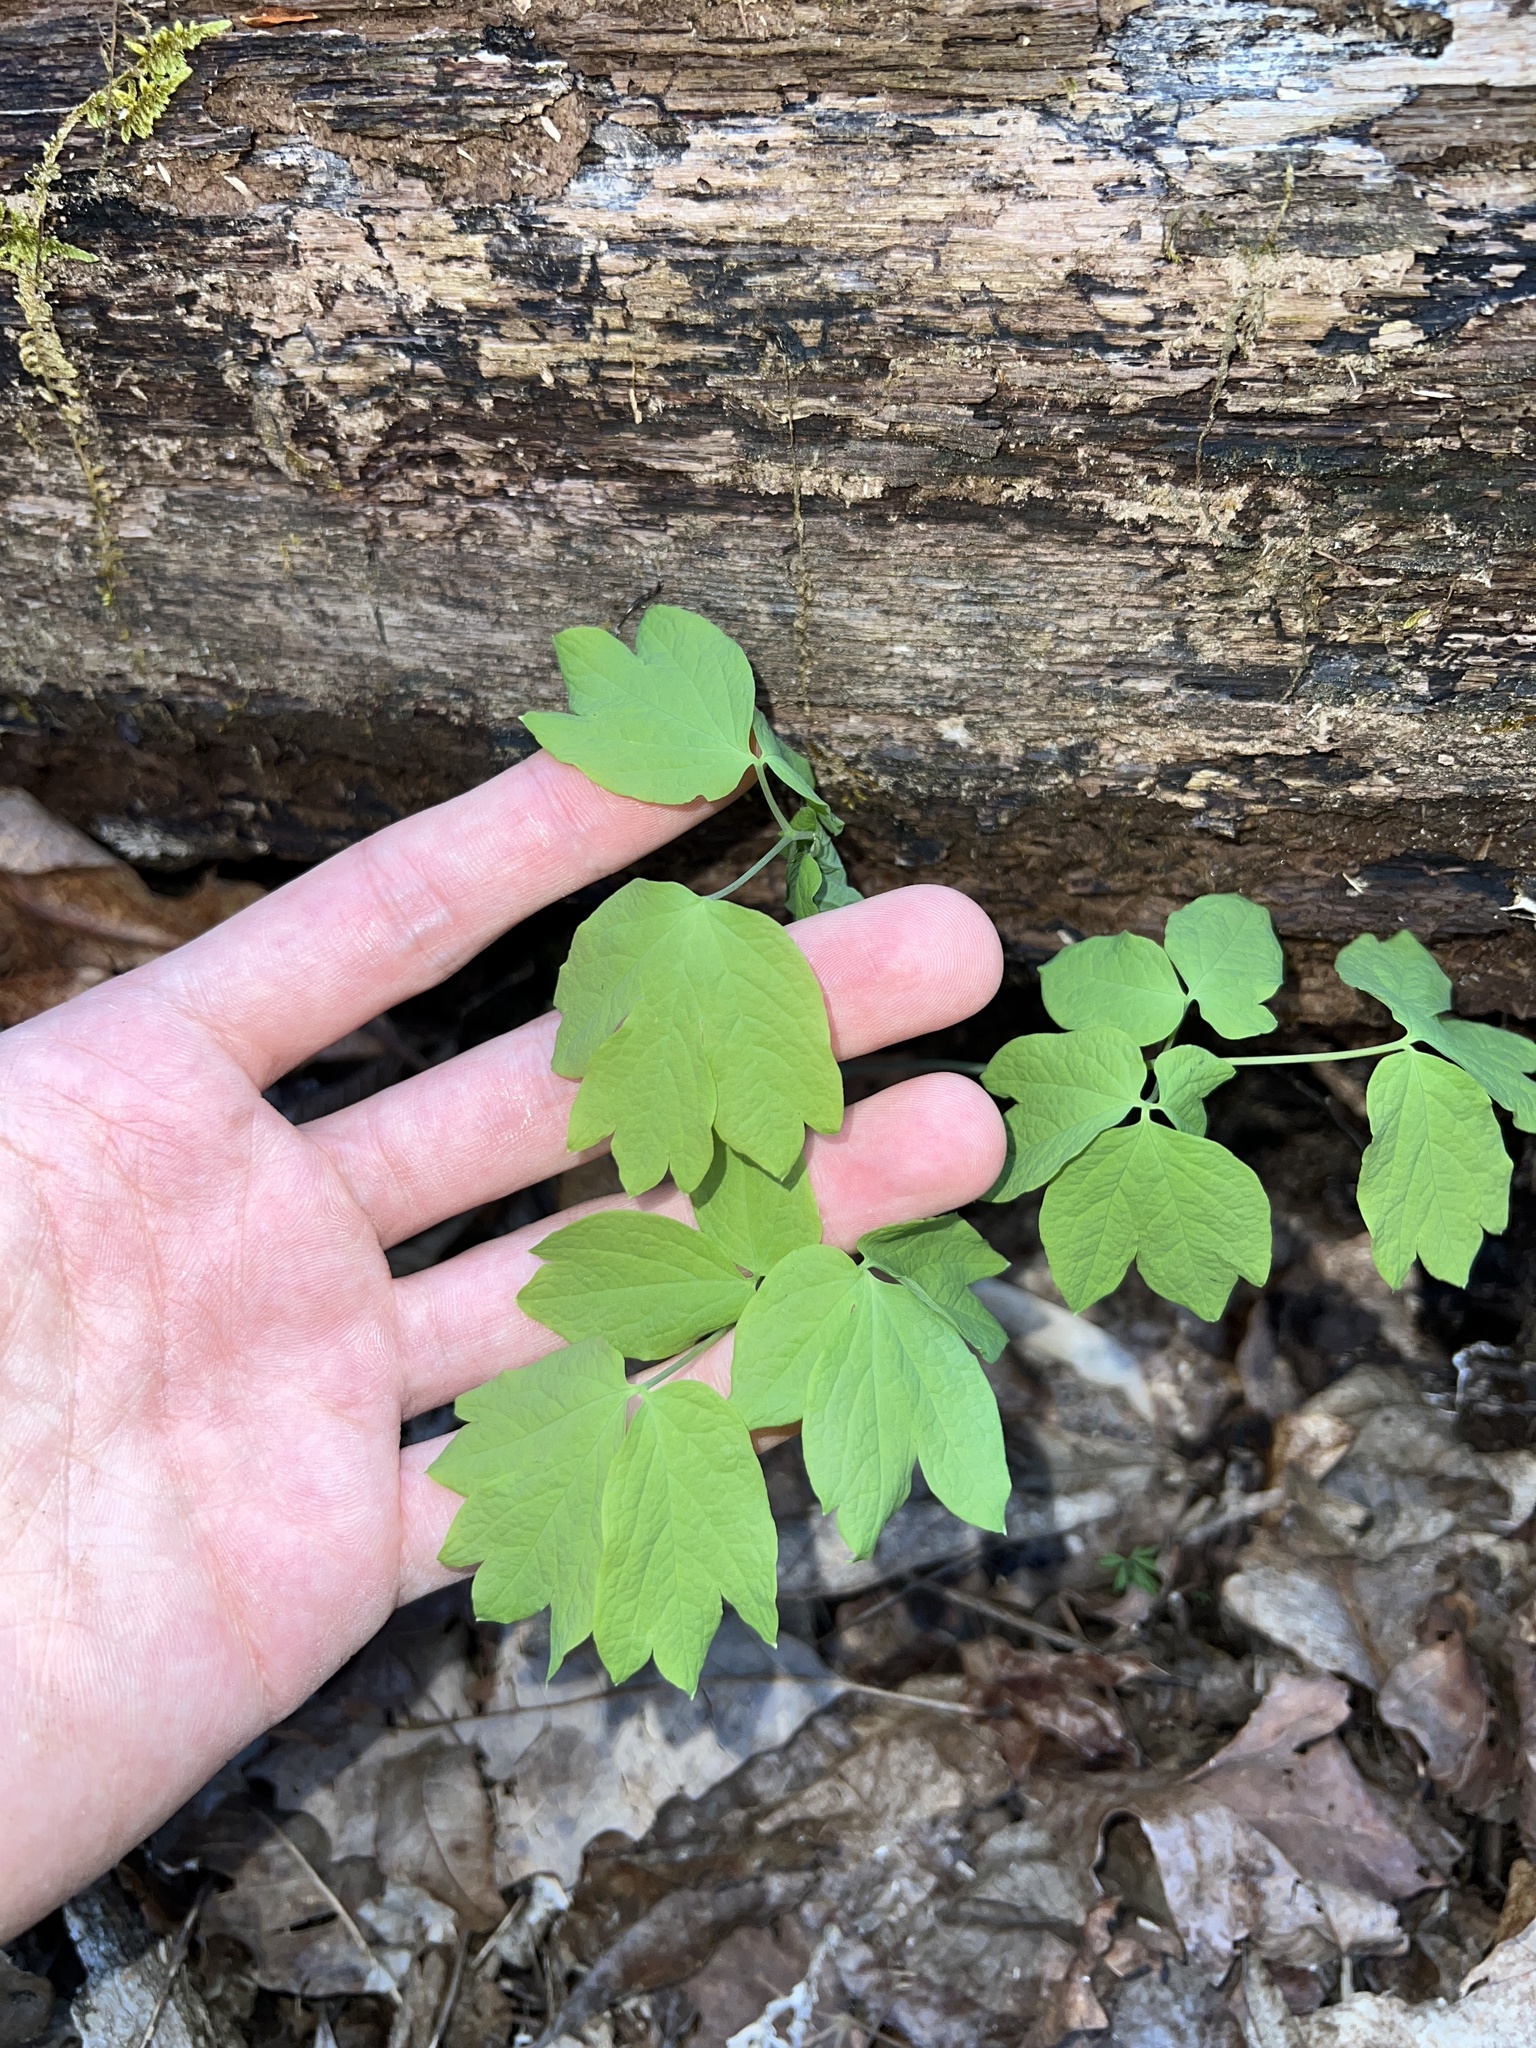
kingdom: Plantae
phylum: Tracheophyta
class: Magnoliopsida
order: Ranunculales
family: Berberidaceae
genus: Caulophyllum
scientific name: Caulophyllum thalictroides
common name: Blue cohosh
